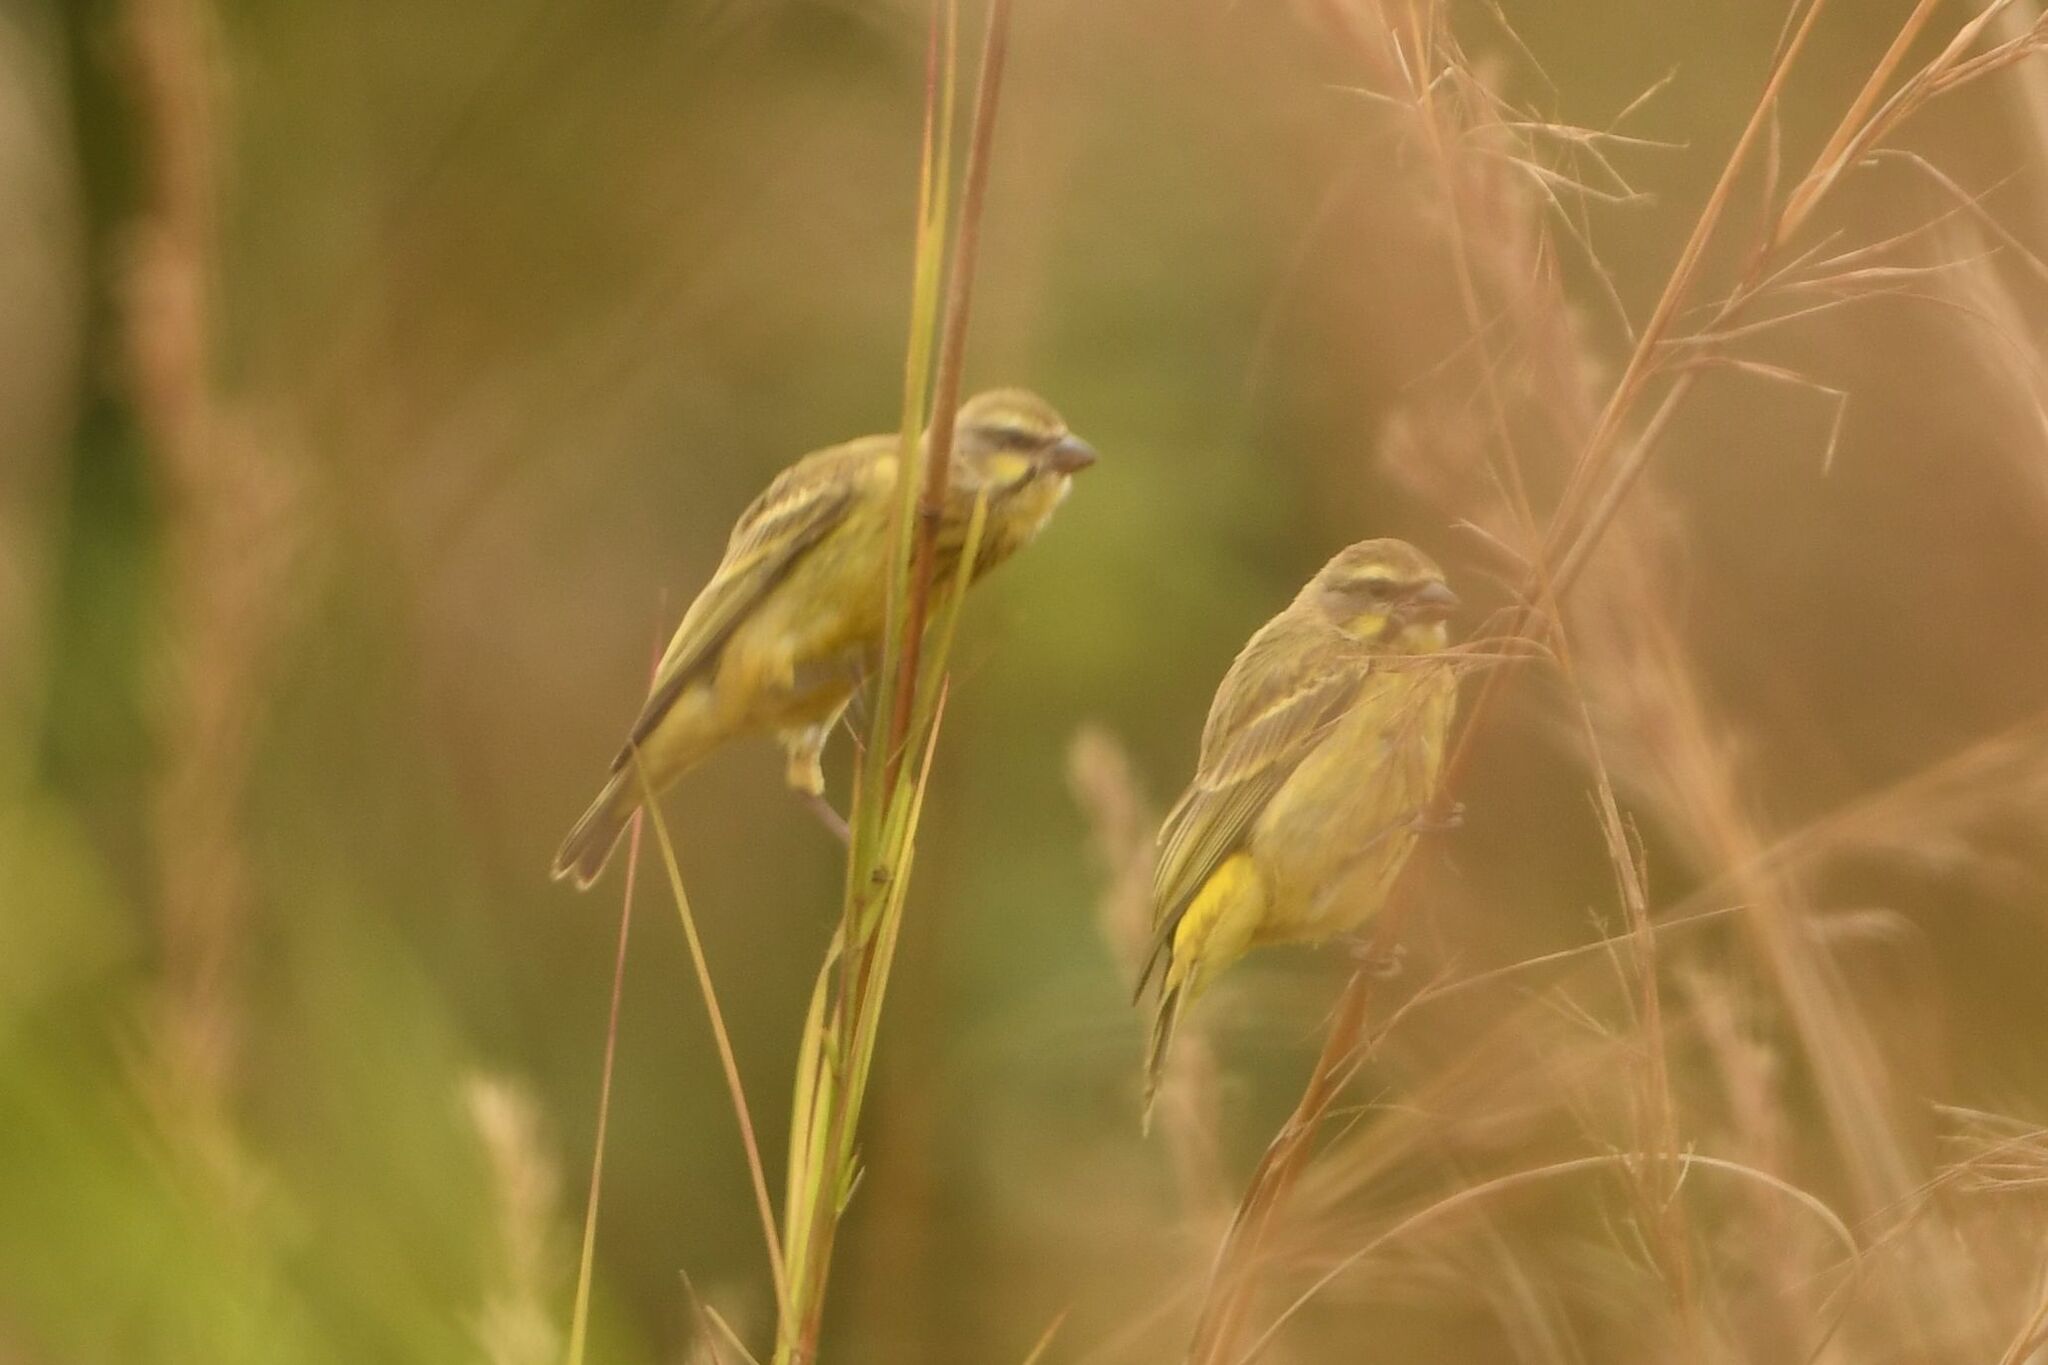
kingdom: Animalia
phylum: Chordata
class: Aves
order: Passeriformes
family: Fringillidae
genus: Crithagra
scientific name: Crithagra mozambica
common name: Yellow-fronted canary
